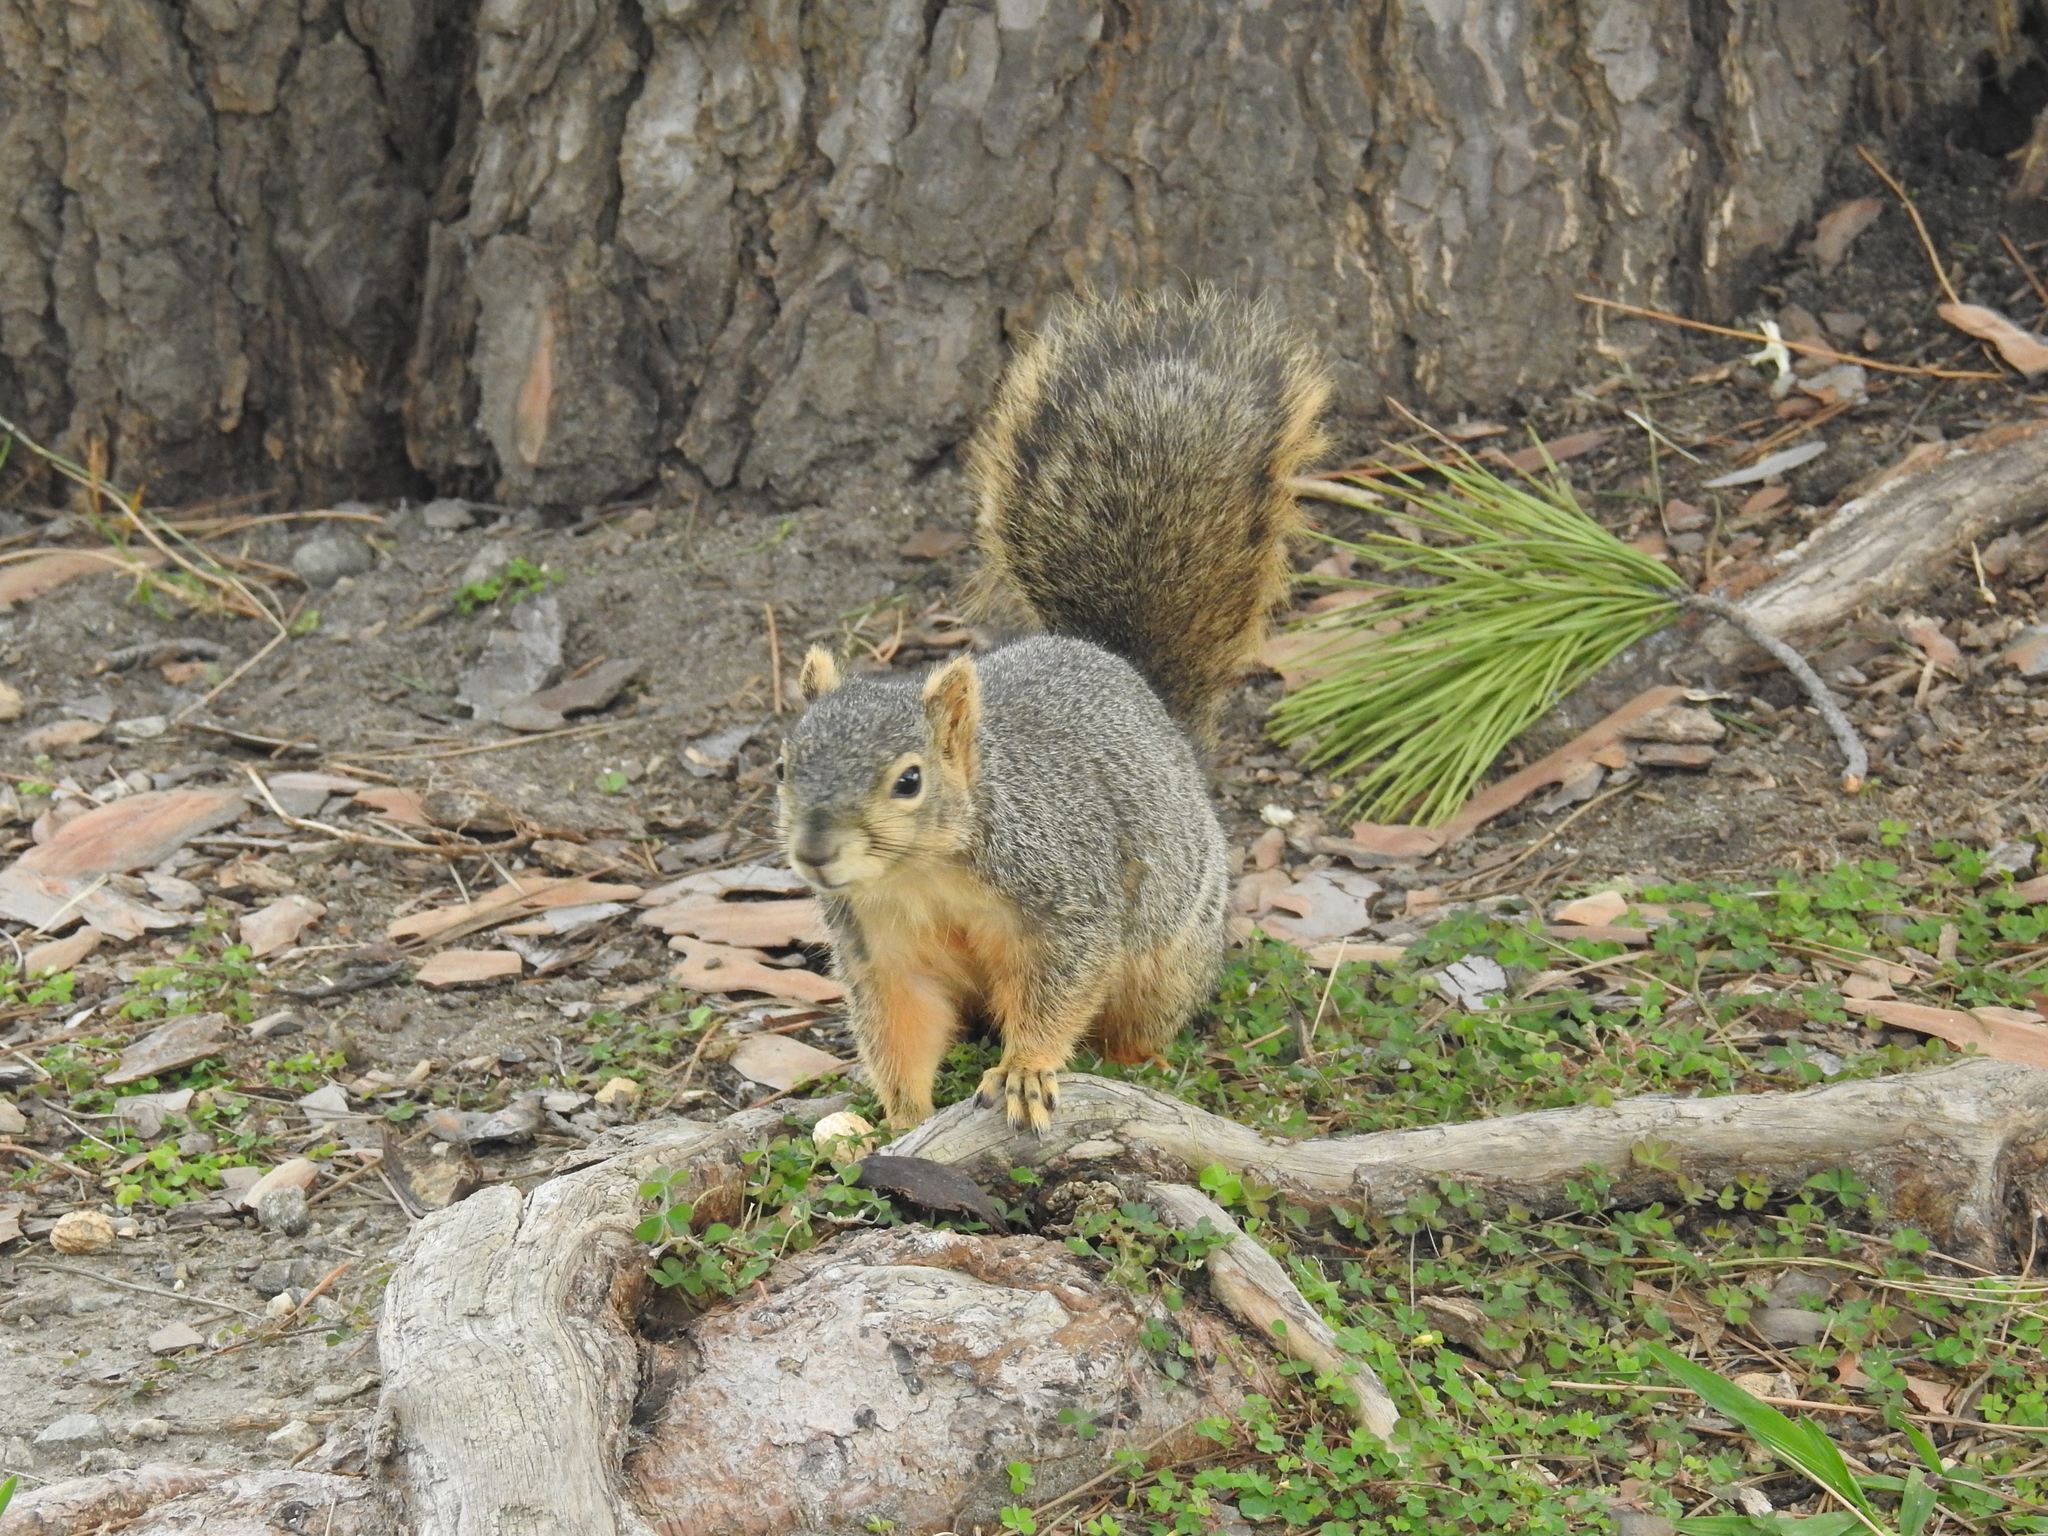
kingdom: Animalia
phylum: Chordata
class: Mammalia
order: Rodentia
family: Sciuridae
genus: Sciurus
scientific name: Sciurus niger
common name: Fox squirrel
